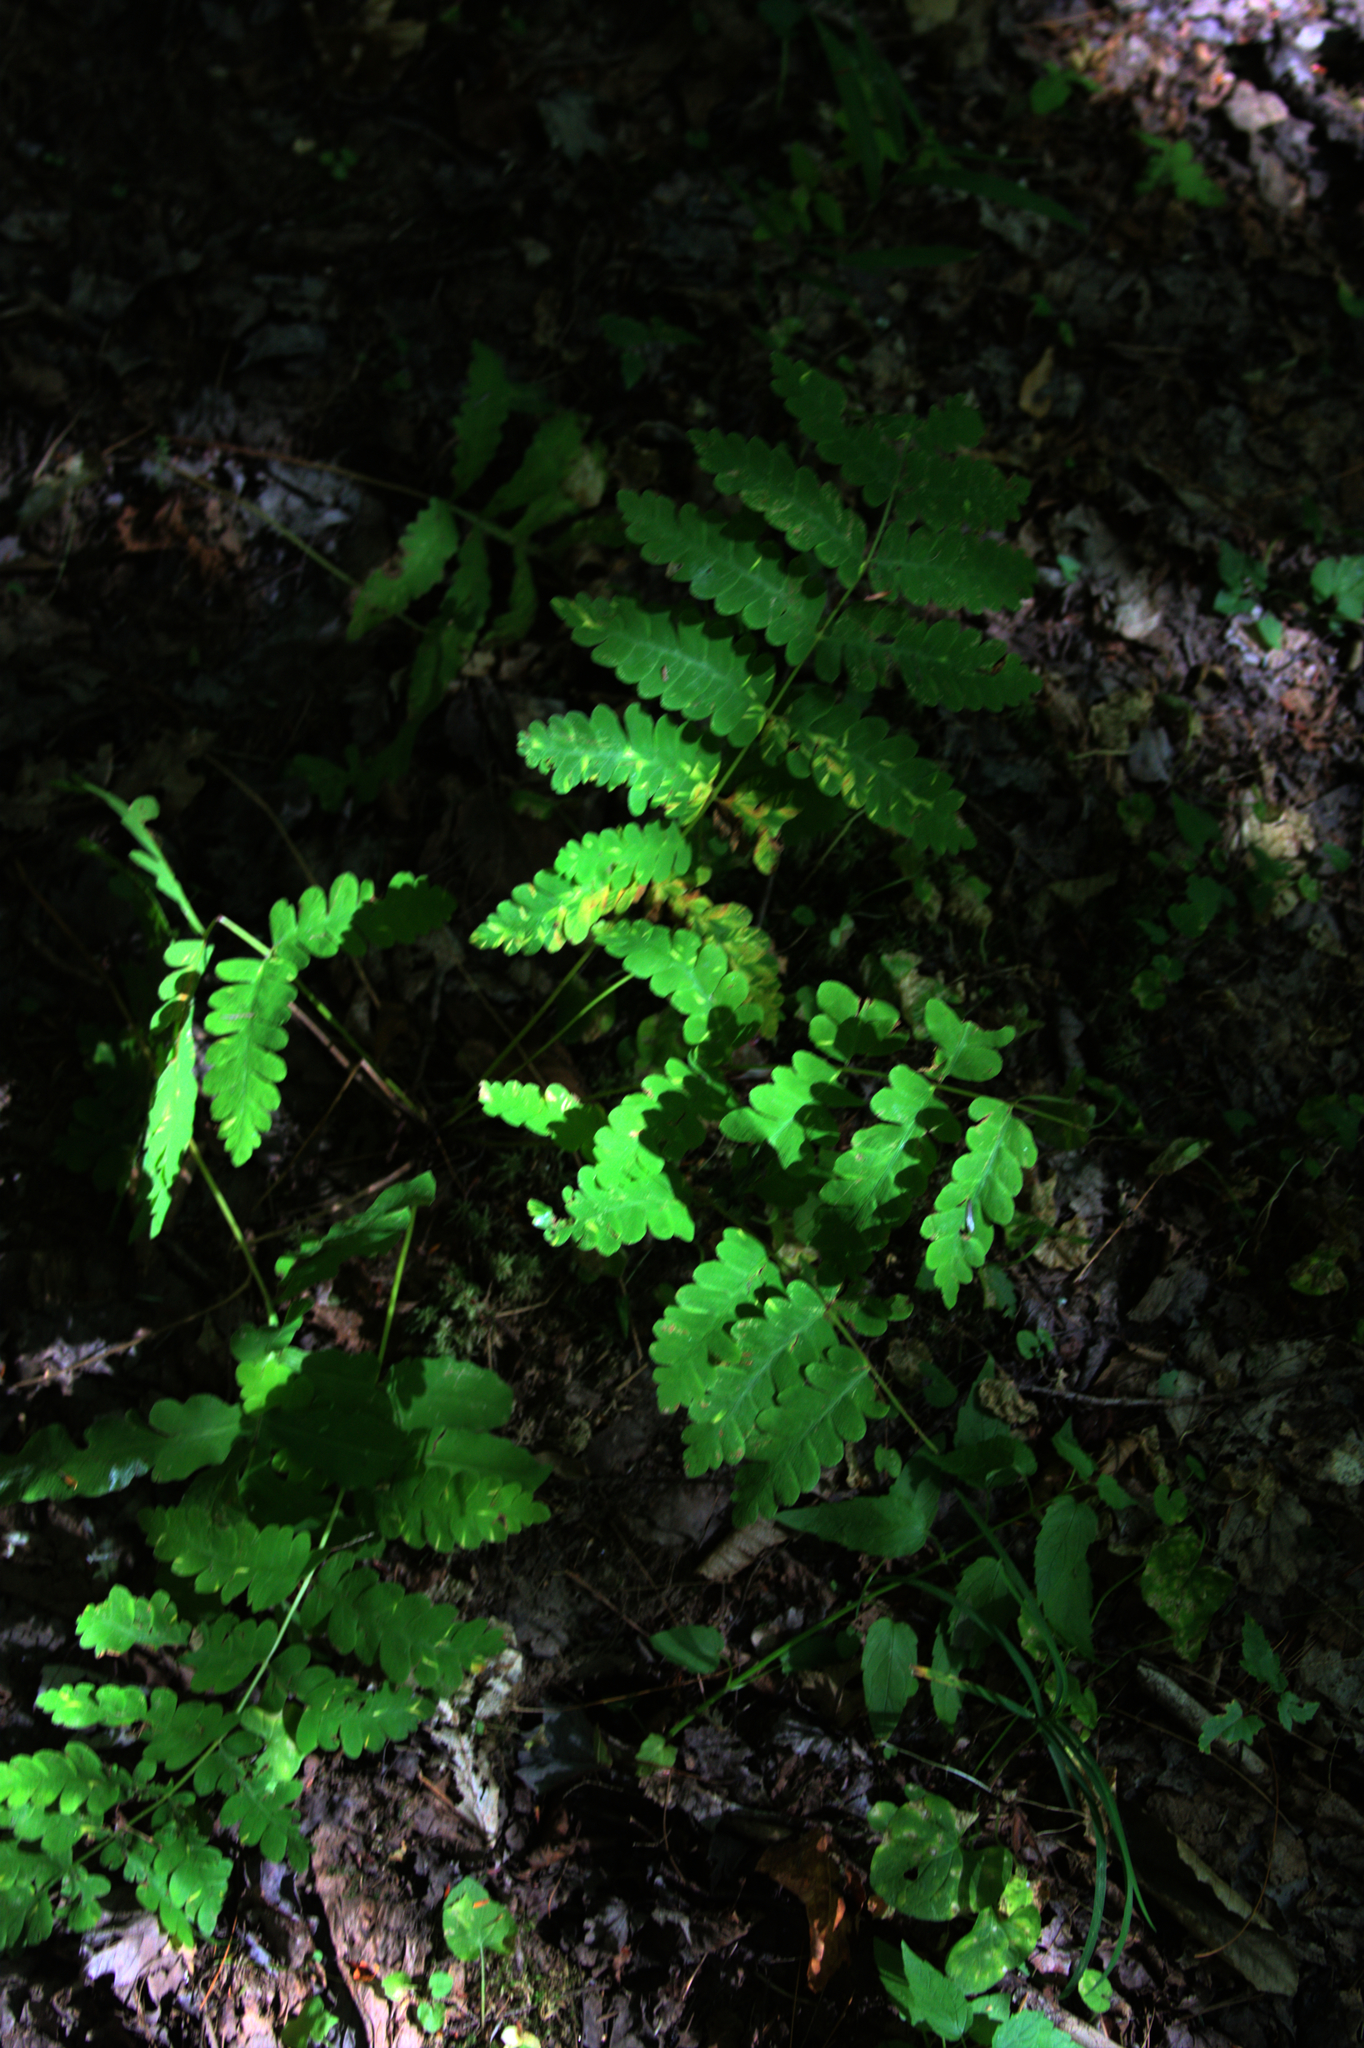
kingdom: Plantae
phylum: Tracheophyta
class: Polypodiopsida
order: Osmundales
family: Osmundaceae
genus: Claytosmunda
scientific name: Claytosmunda claytoniana
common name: Clayton's fern
